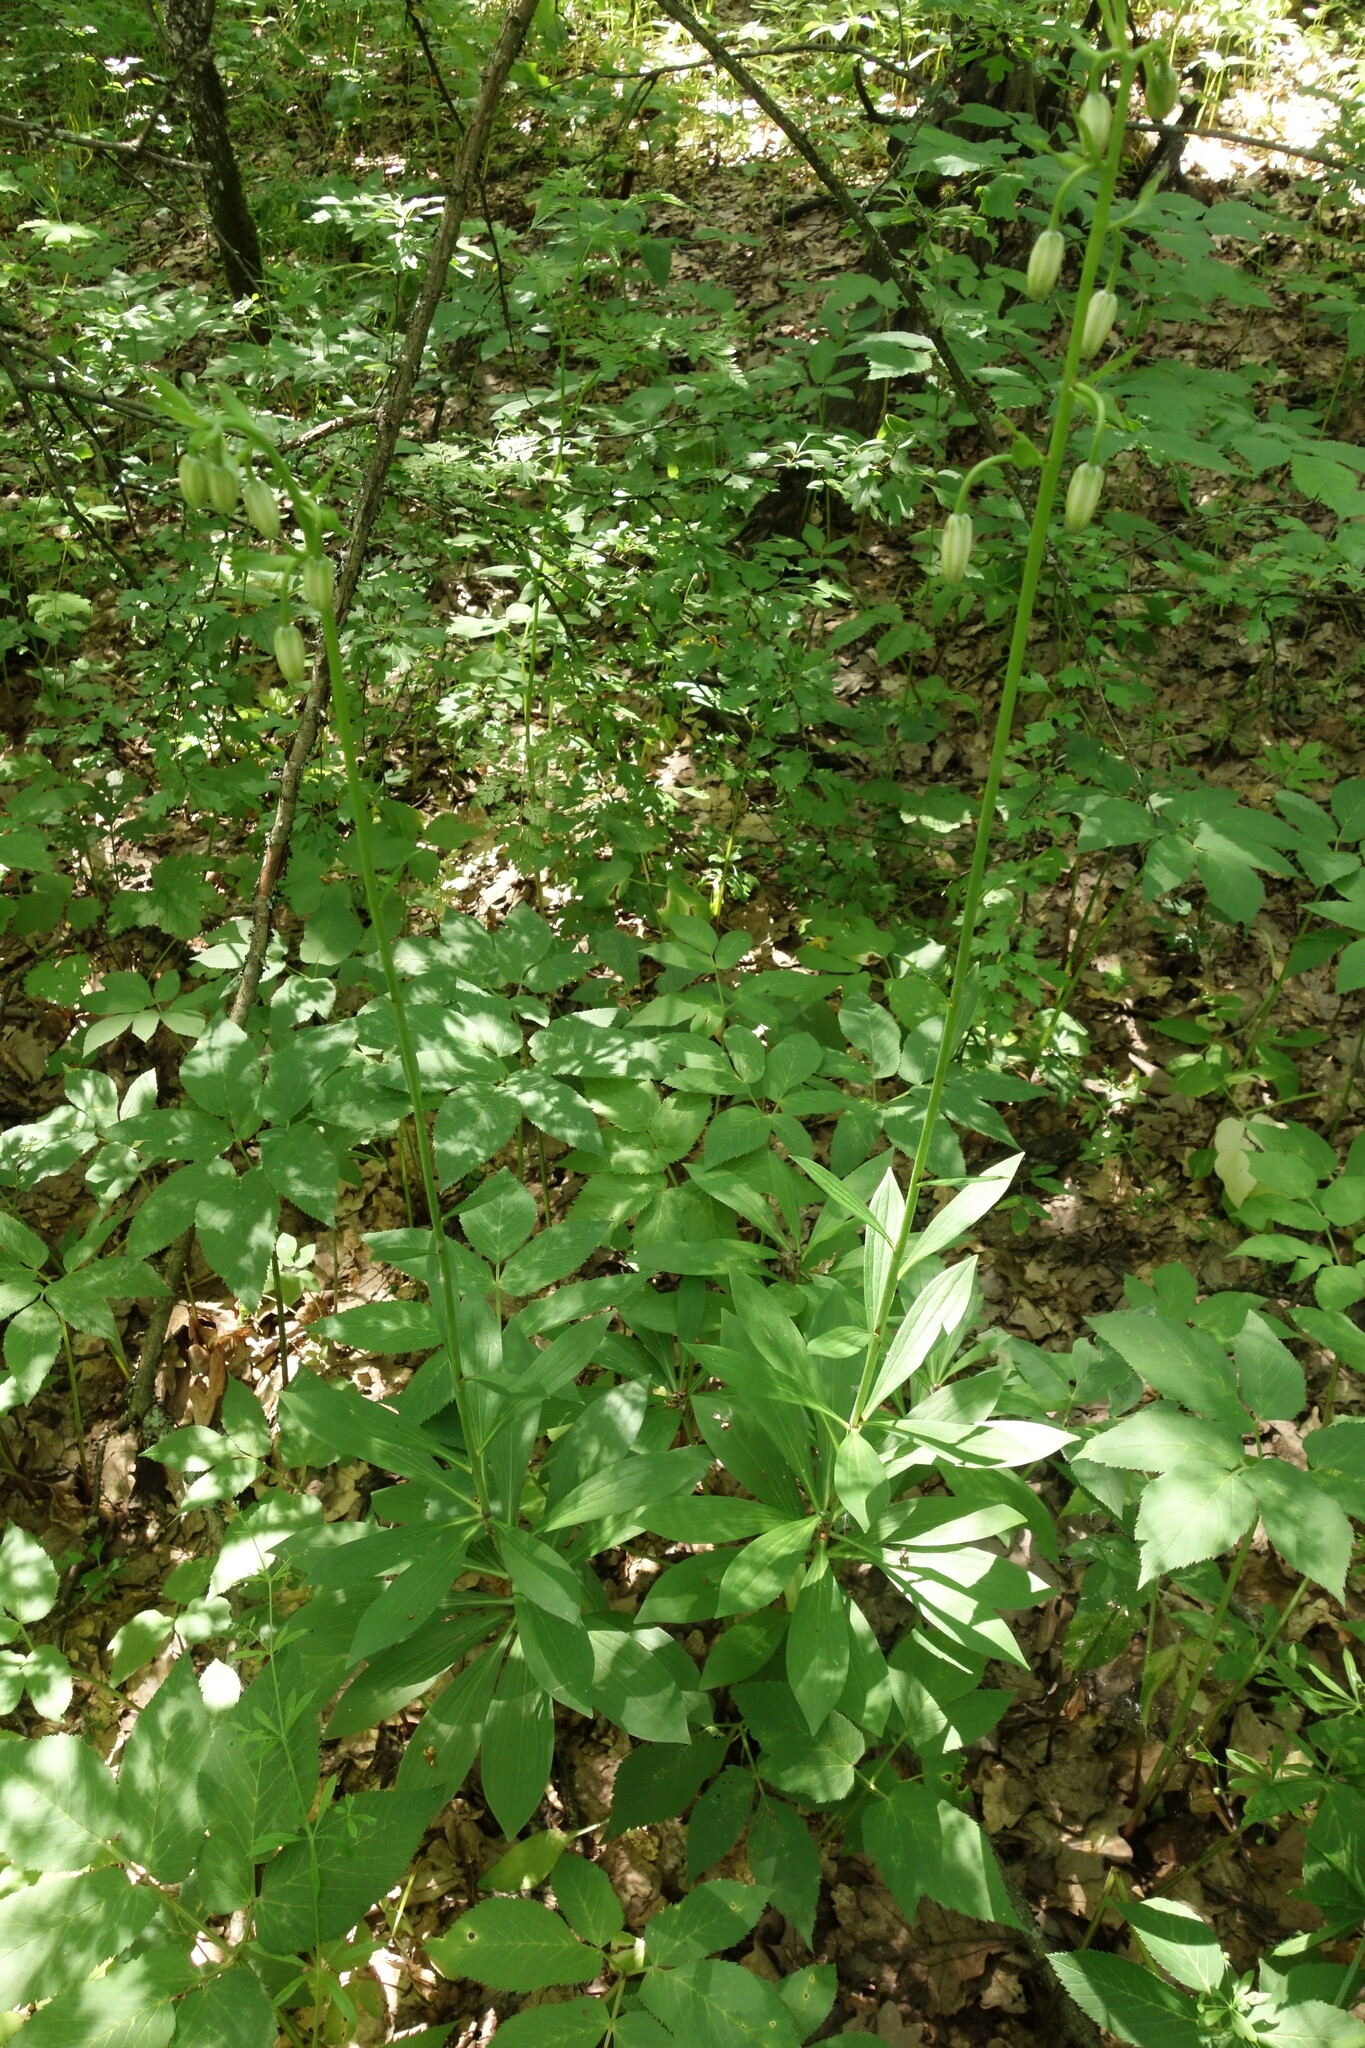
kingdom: Plantae
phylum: Tracheophyta
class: Liliopsida
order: Liliales
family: Liliaceae
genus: Lilium
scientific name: Lilium martagon
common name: Martagon lily
